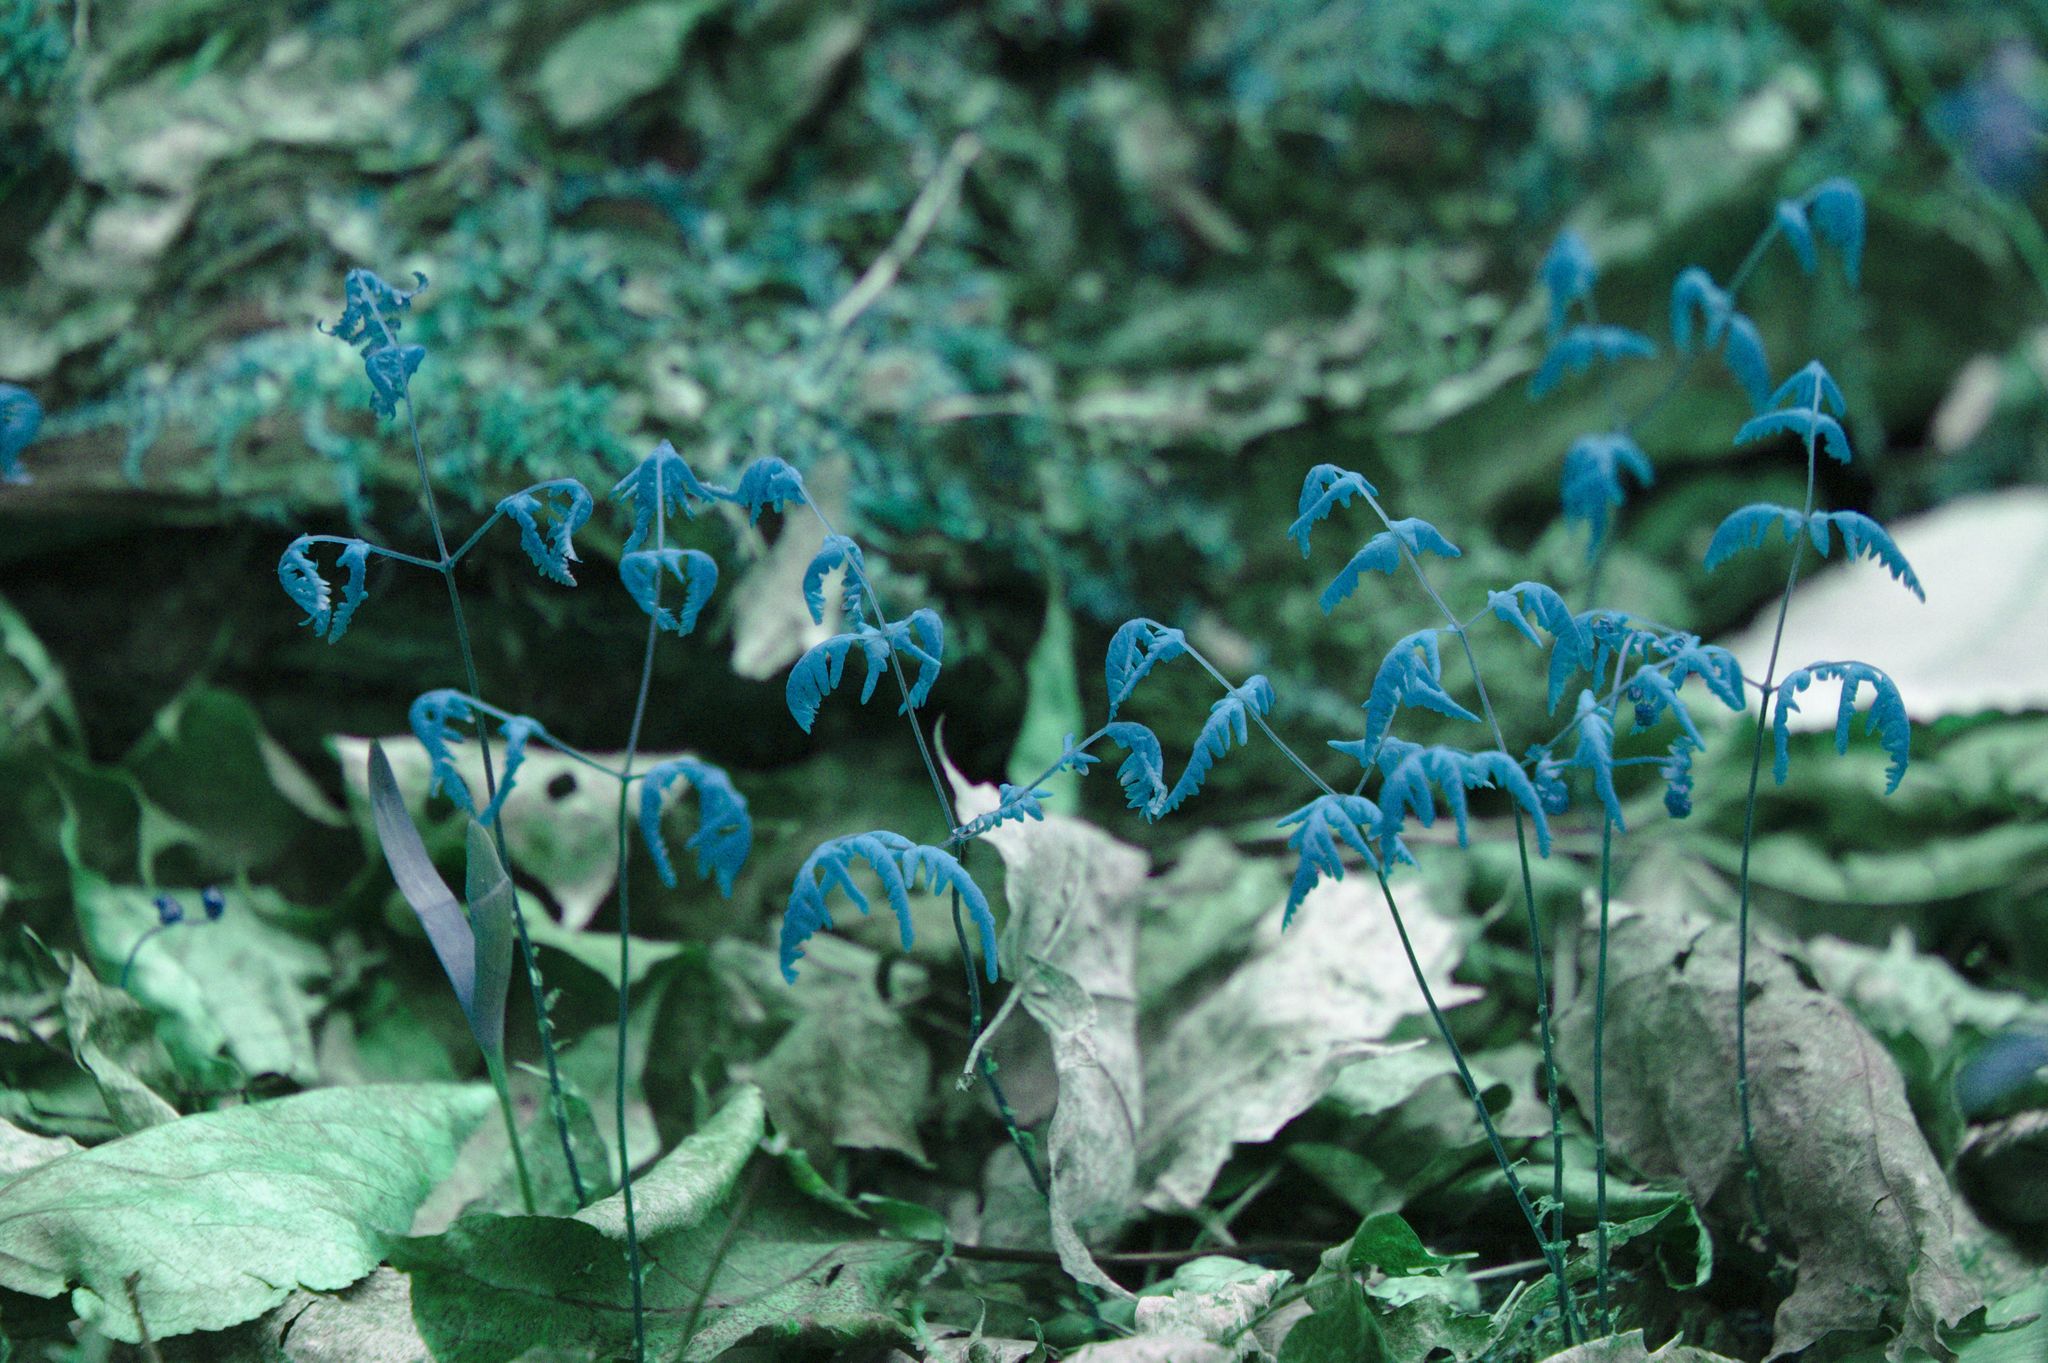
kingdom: Plantae
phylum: Tracheophyta
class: Polypodiopsida
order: Polypodiales
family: Cystopteridaceae
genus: Gymnocarpium
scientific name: Gymnocarpium dryopteris
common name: Oak fern
